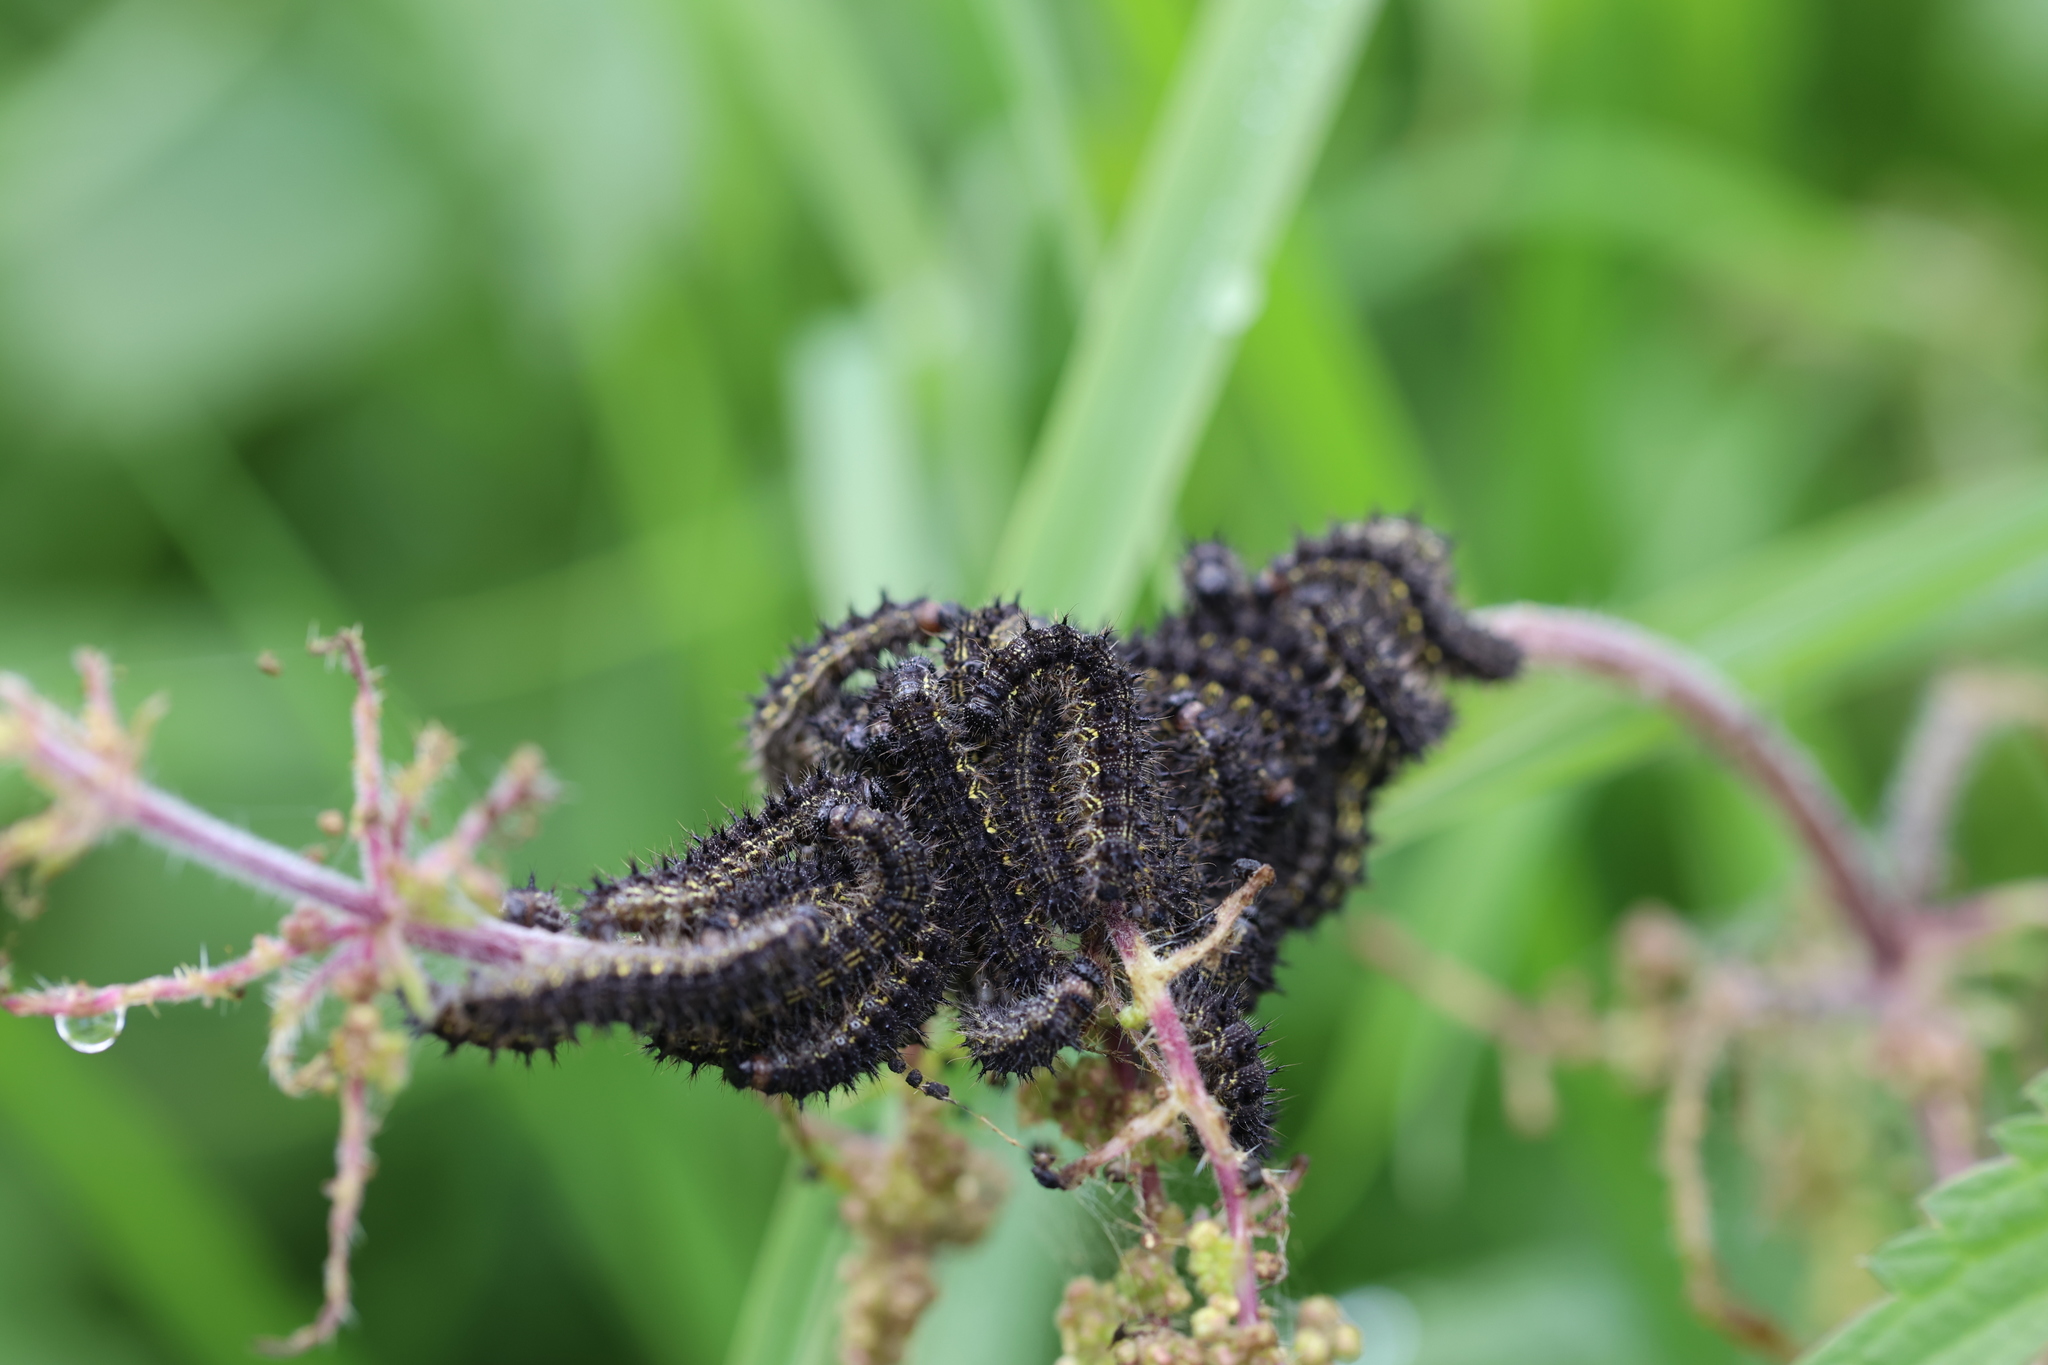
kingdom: Animalia
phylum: Arthropoda
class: Insecta
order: Lepidoptera
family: Nymphalidae
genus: Aglais
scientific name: Aglais urticae
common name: Small tortoiseshell
